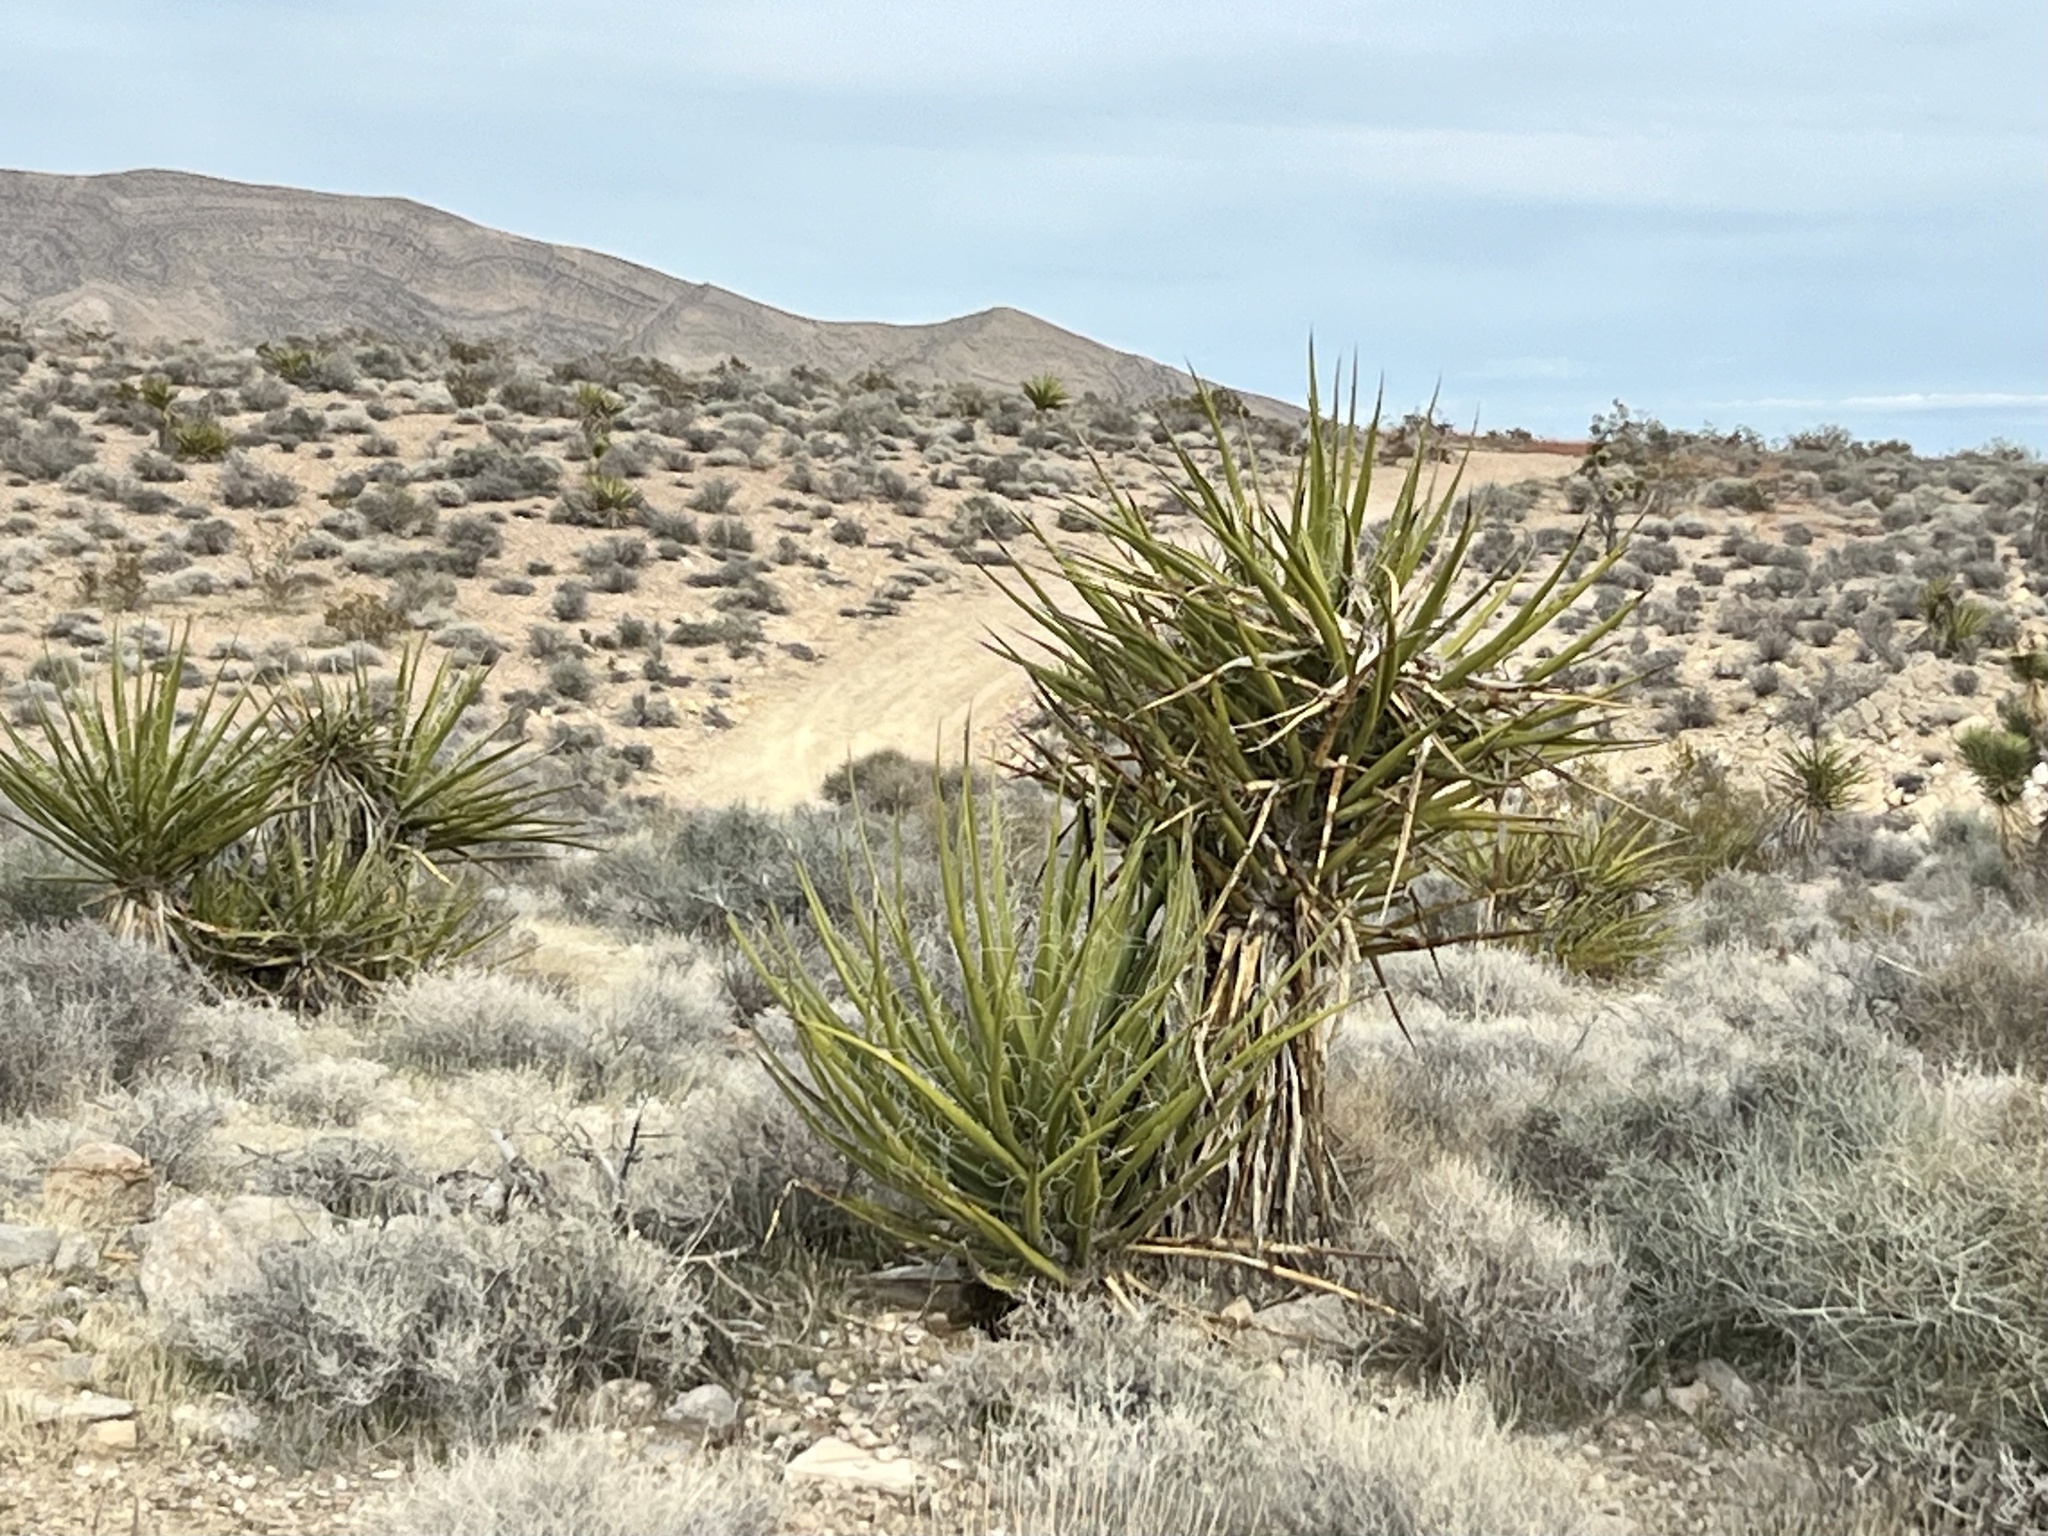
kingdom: Plantae
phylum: Tracheophyta
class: Liliopsida
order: Asparagales
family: Asparagaceae
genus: Yucca
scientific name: Yucca schidigera
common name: Mojave yucca
